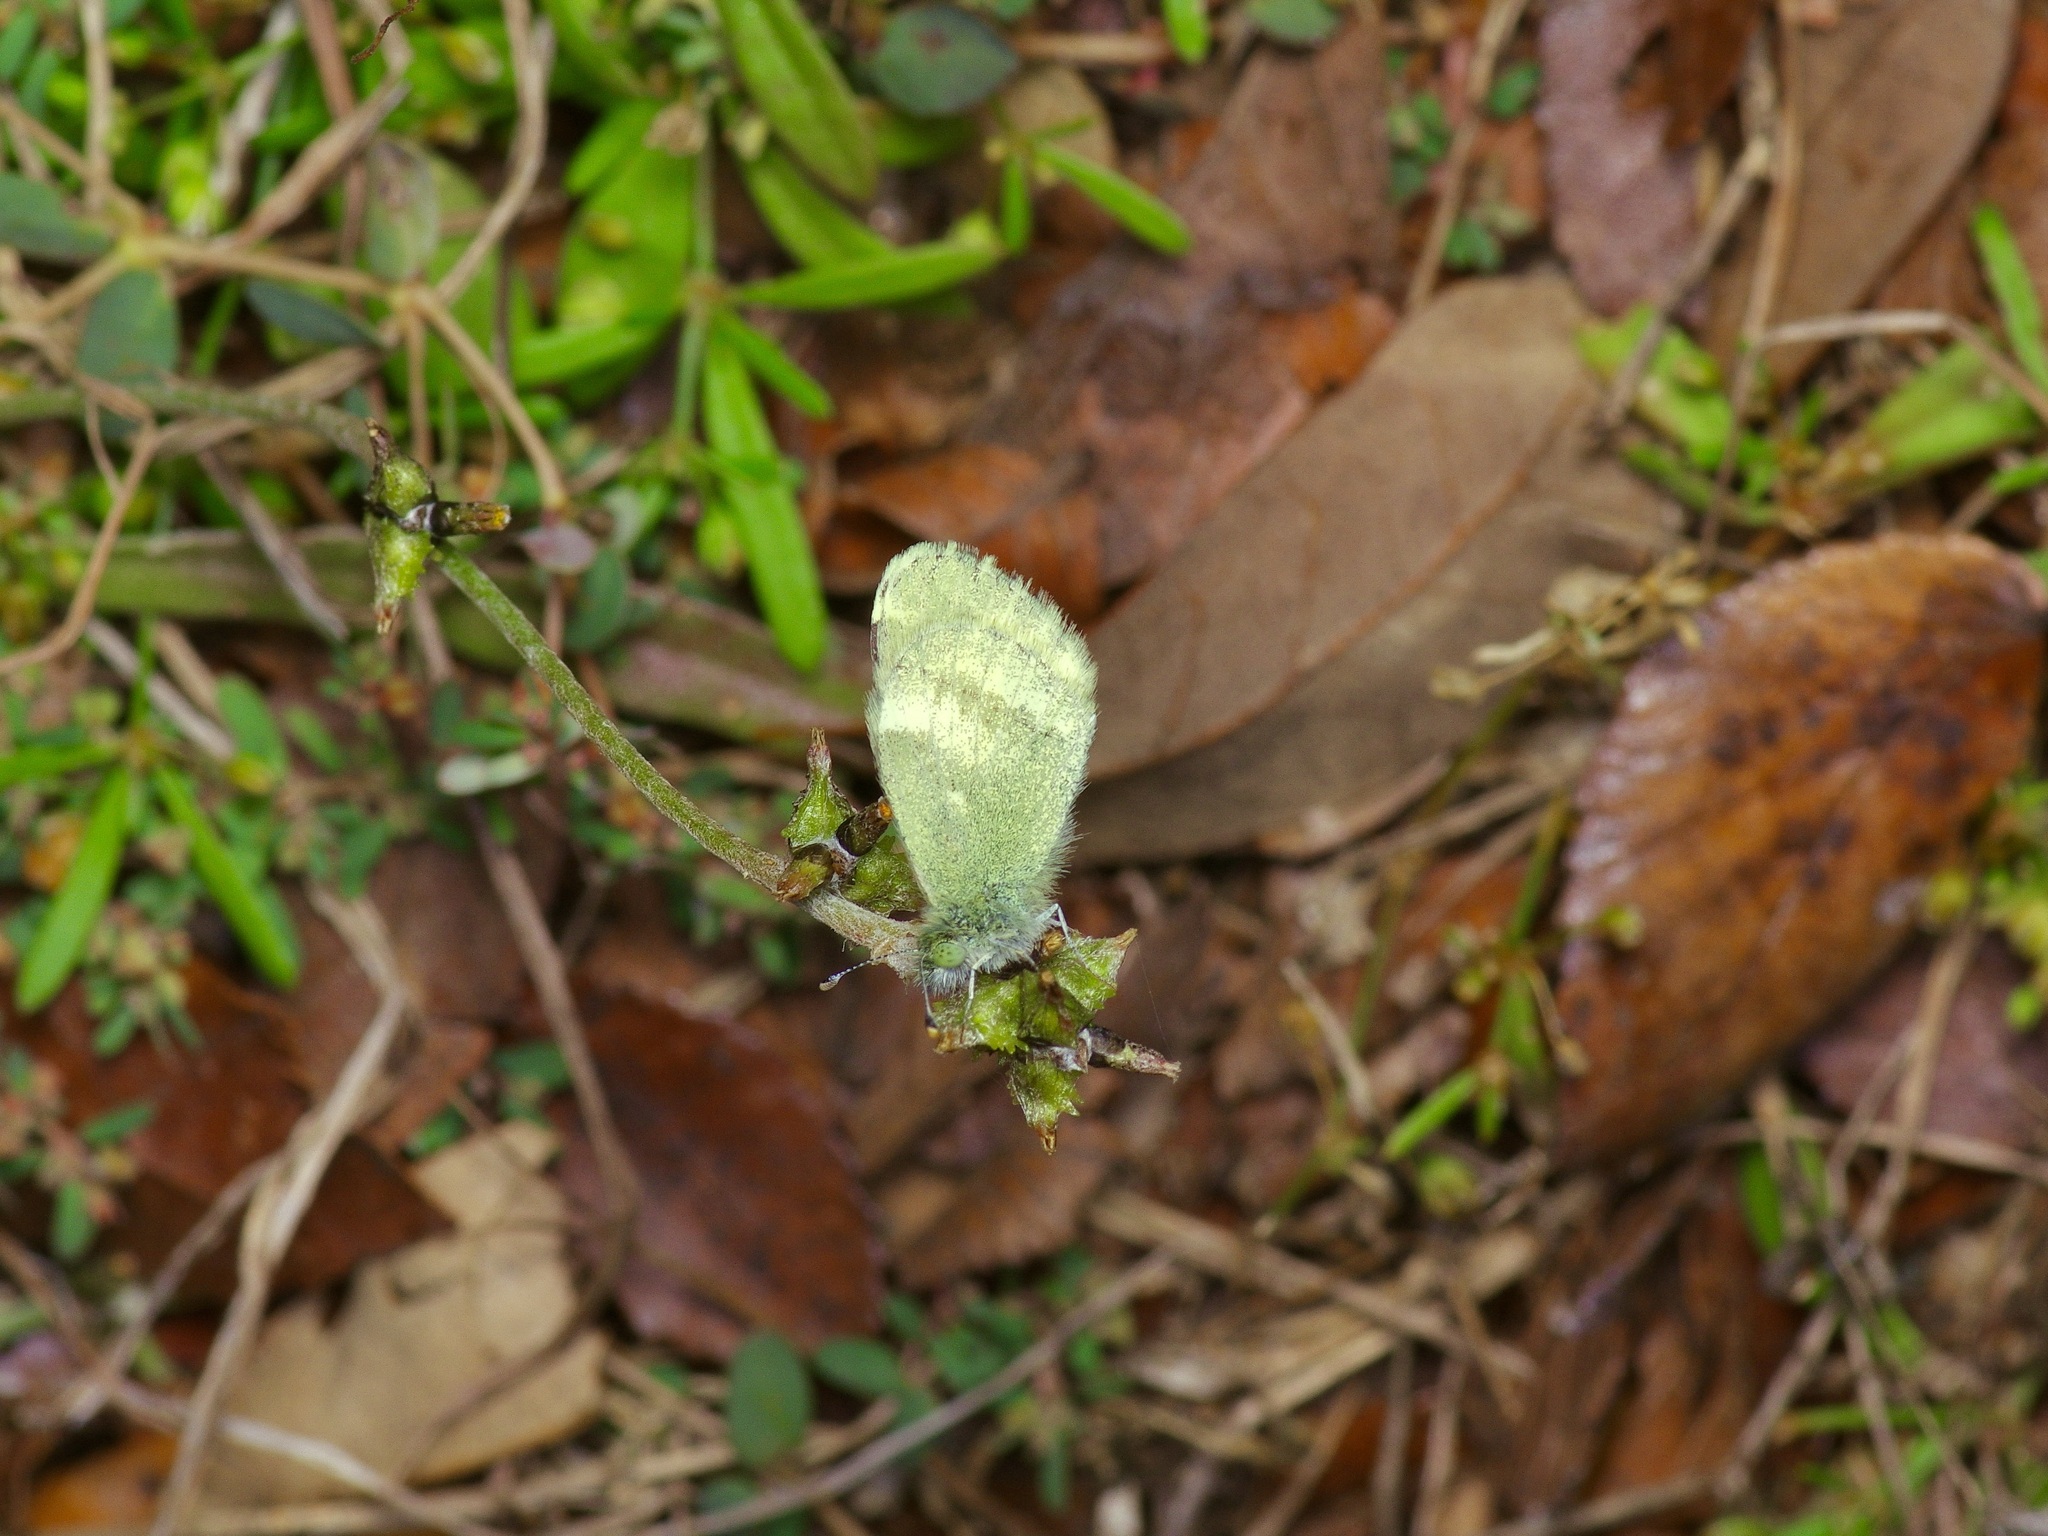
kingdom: Animalia
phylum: Arthropoda
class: Insecta
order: Lepidoptera
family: Pieridae
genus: Nathalis
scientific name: Nathalis iole
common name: Dainty sulphur
